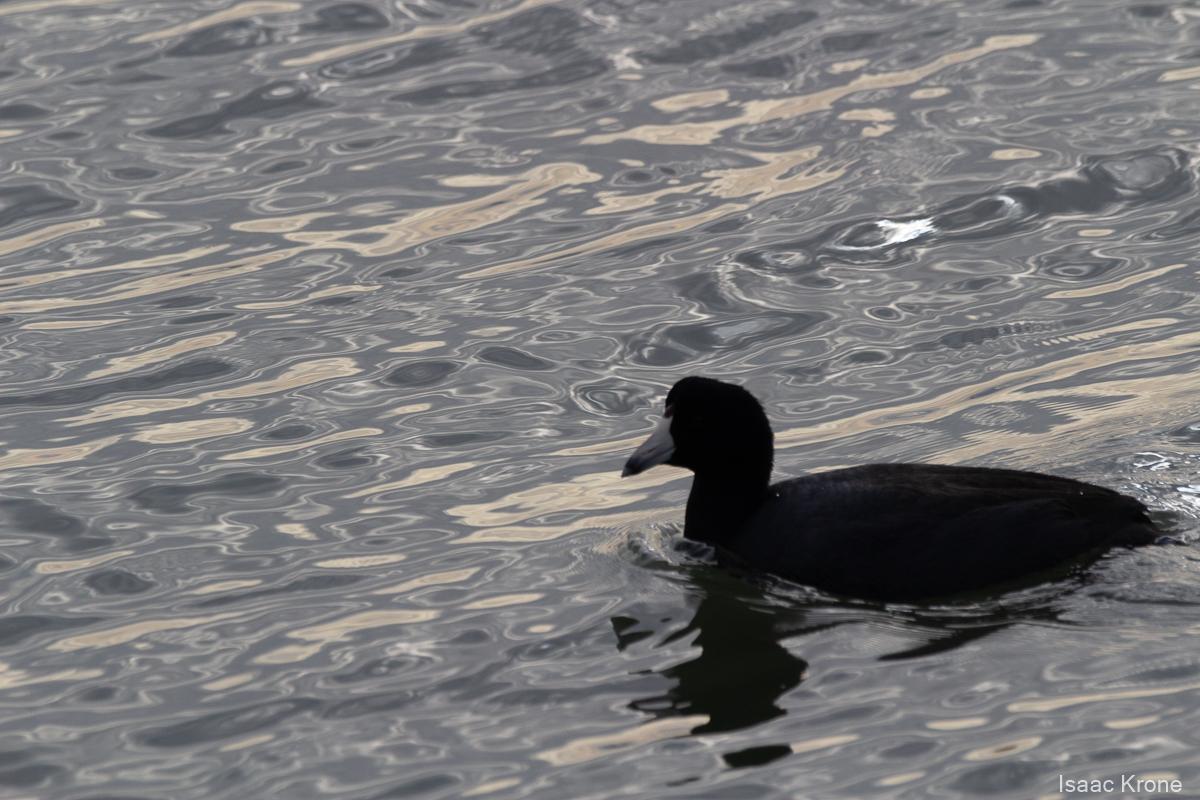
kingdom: Animalia
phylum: Chordata
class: Aves
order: Gruiformes
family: Rallidae
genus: Fulica
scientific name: Fulica americana
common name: American coot
